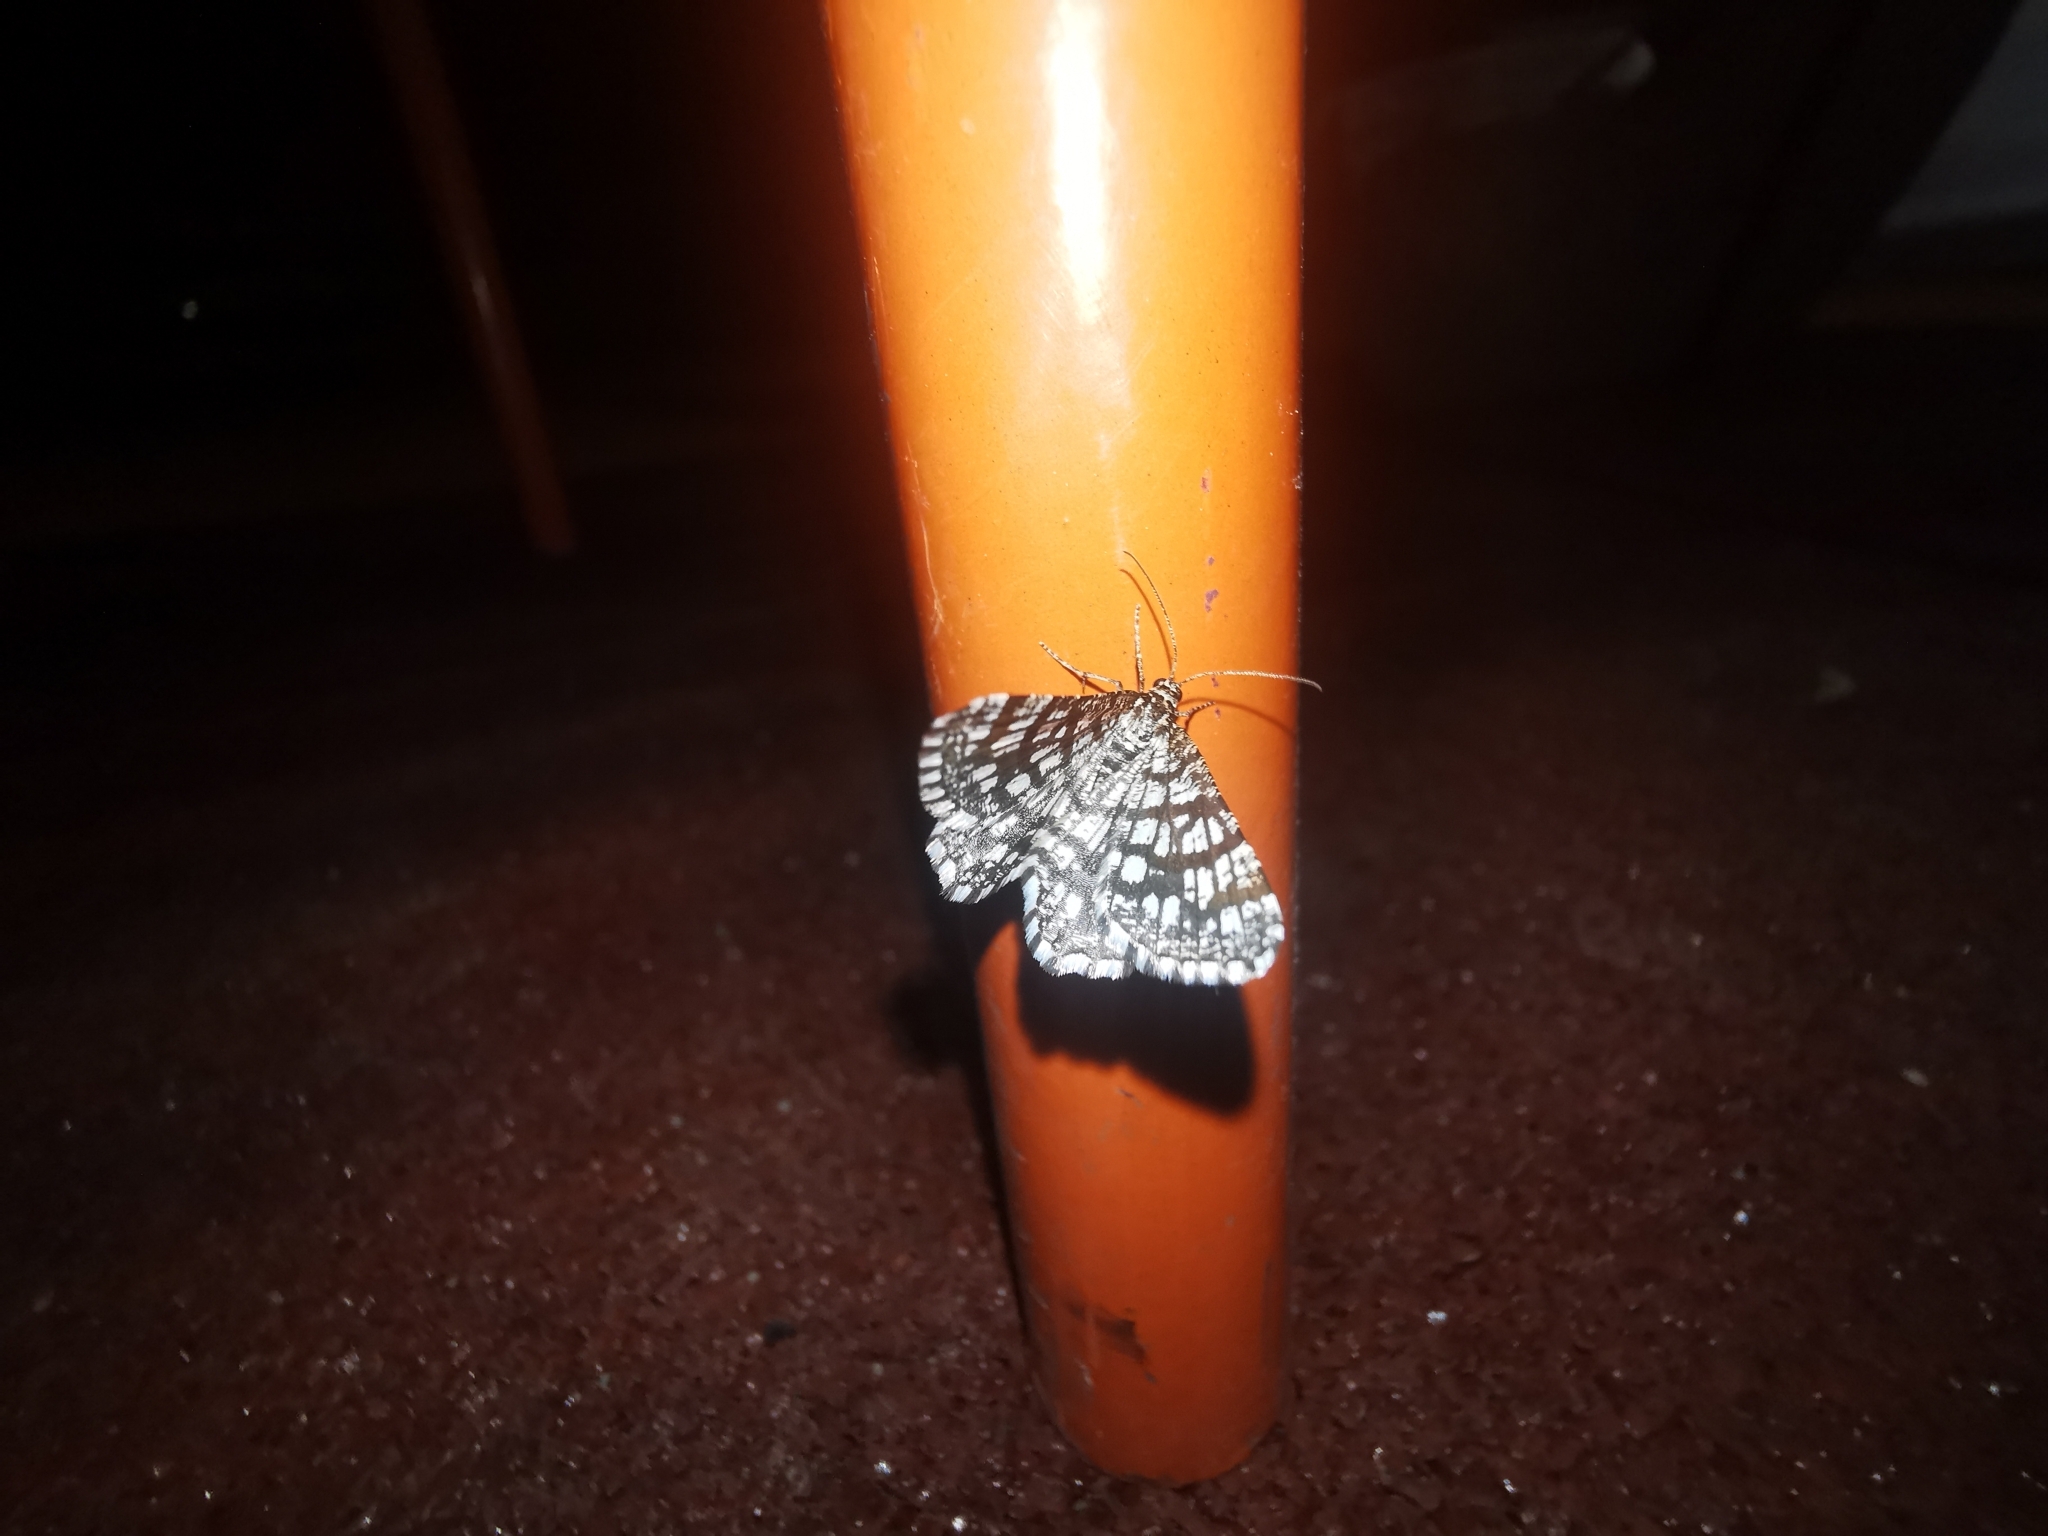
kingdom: Animalia
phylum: Arthropoda
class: Insecta
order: Lepidoptera
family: Geometridae
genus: Chiasmia
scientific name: Chiasmia clathrata
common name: Latticed heath
